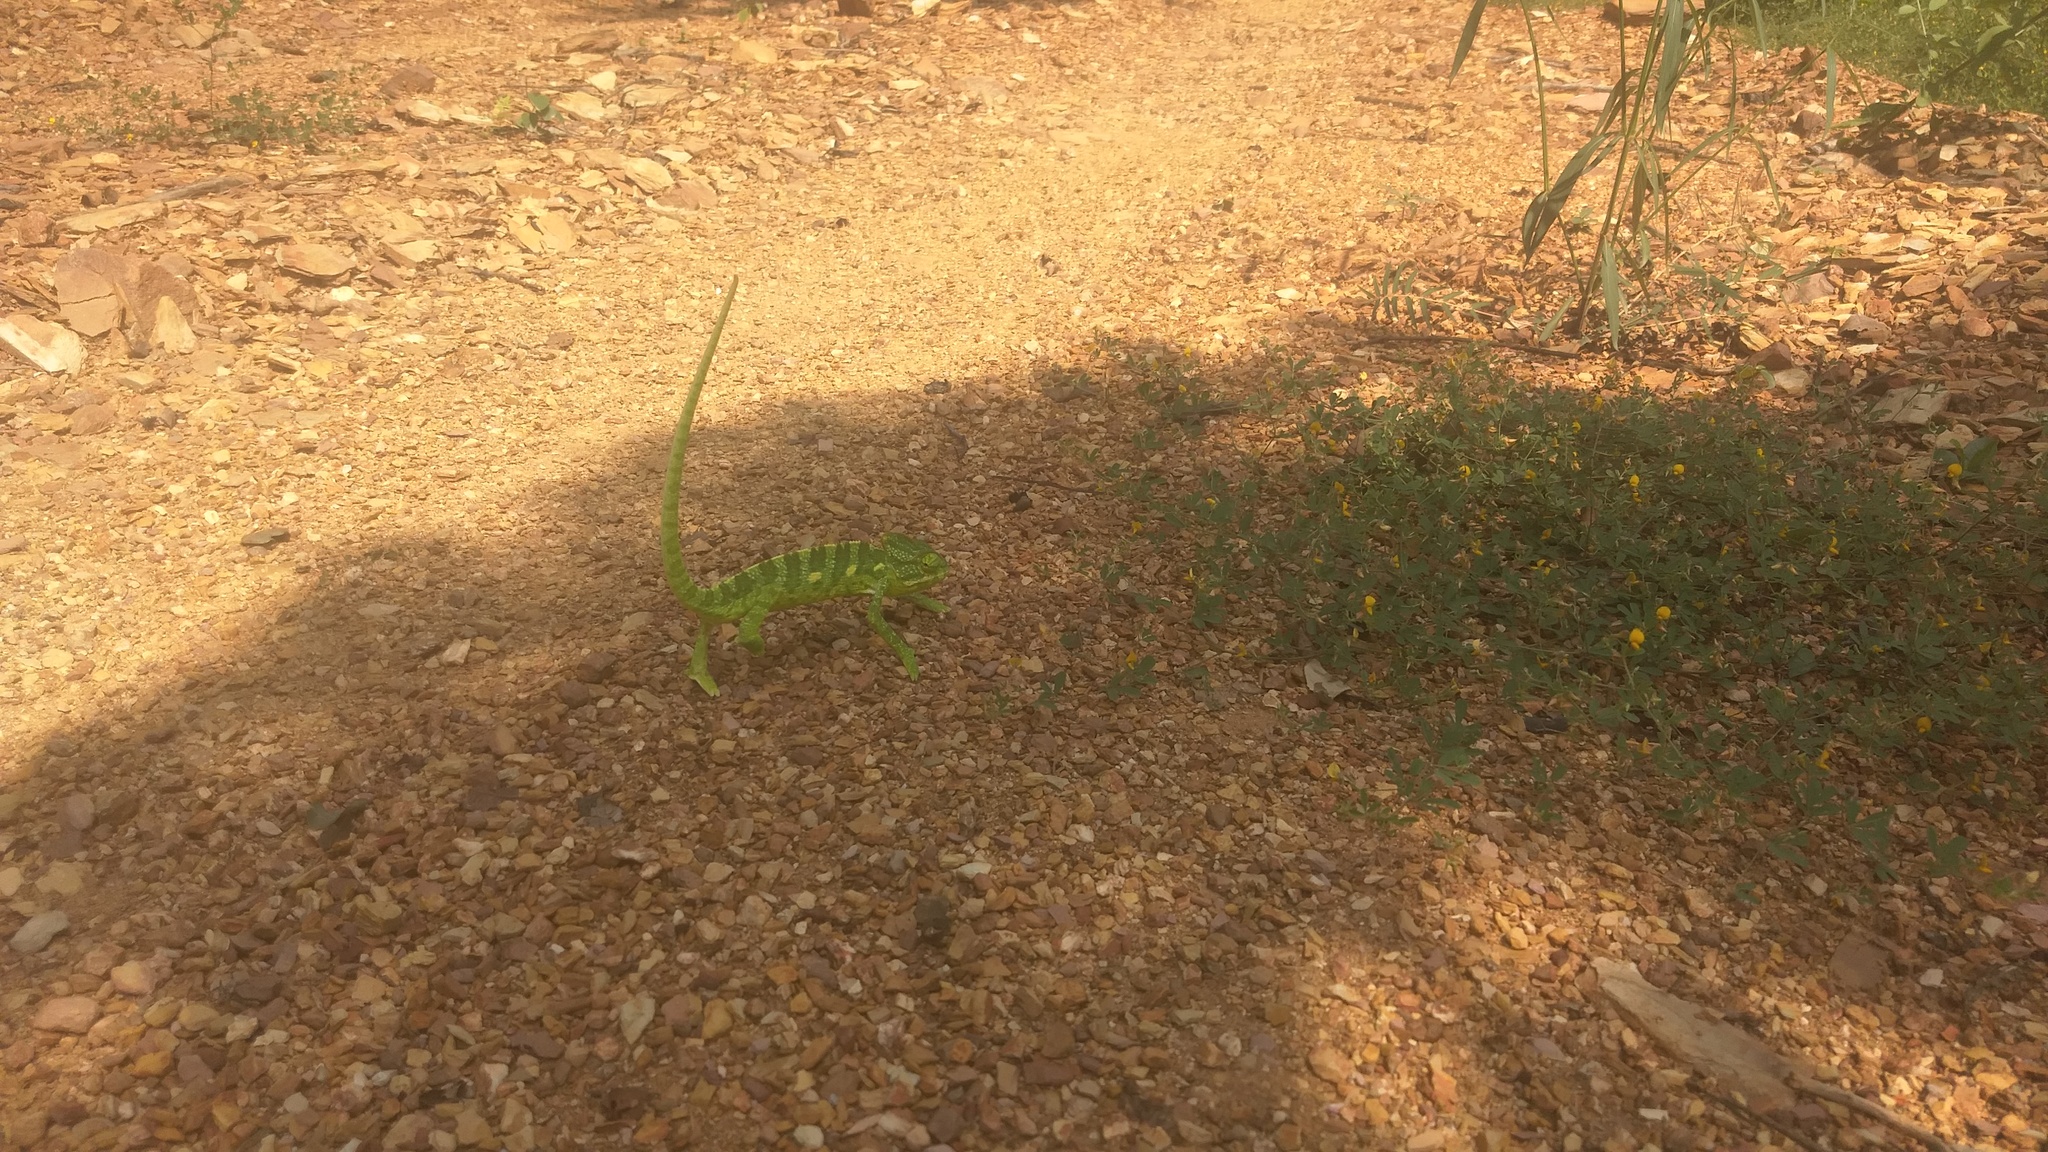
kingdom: Animalia
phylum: Chordata
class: Squamata
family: Chamaeleonidae
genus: Chamaeleo
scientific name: Chamaeleo zeylanicus
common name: Indian chameleon
